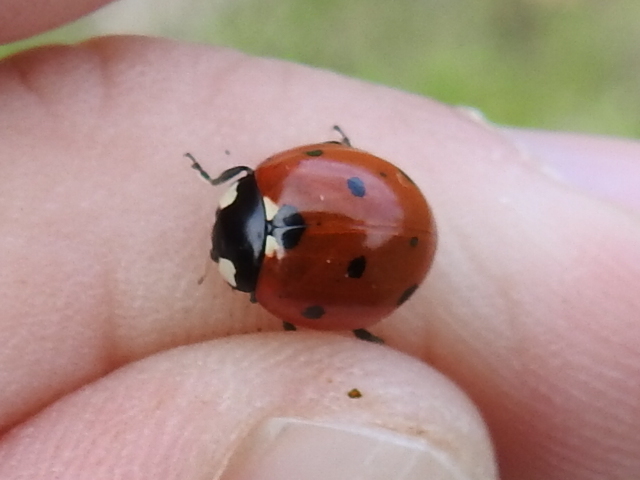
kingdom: Animalia
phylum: Arthropoda
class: Insecta
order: Coleoptera
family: Coccinellidae
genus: Coccinella
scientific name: Coccinella septempunctata
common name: Sevenspotted lady beetle
